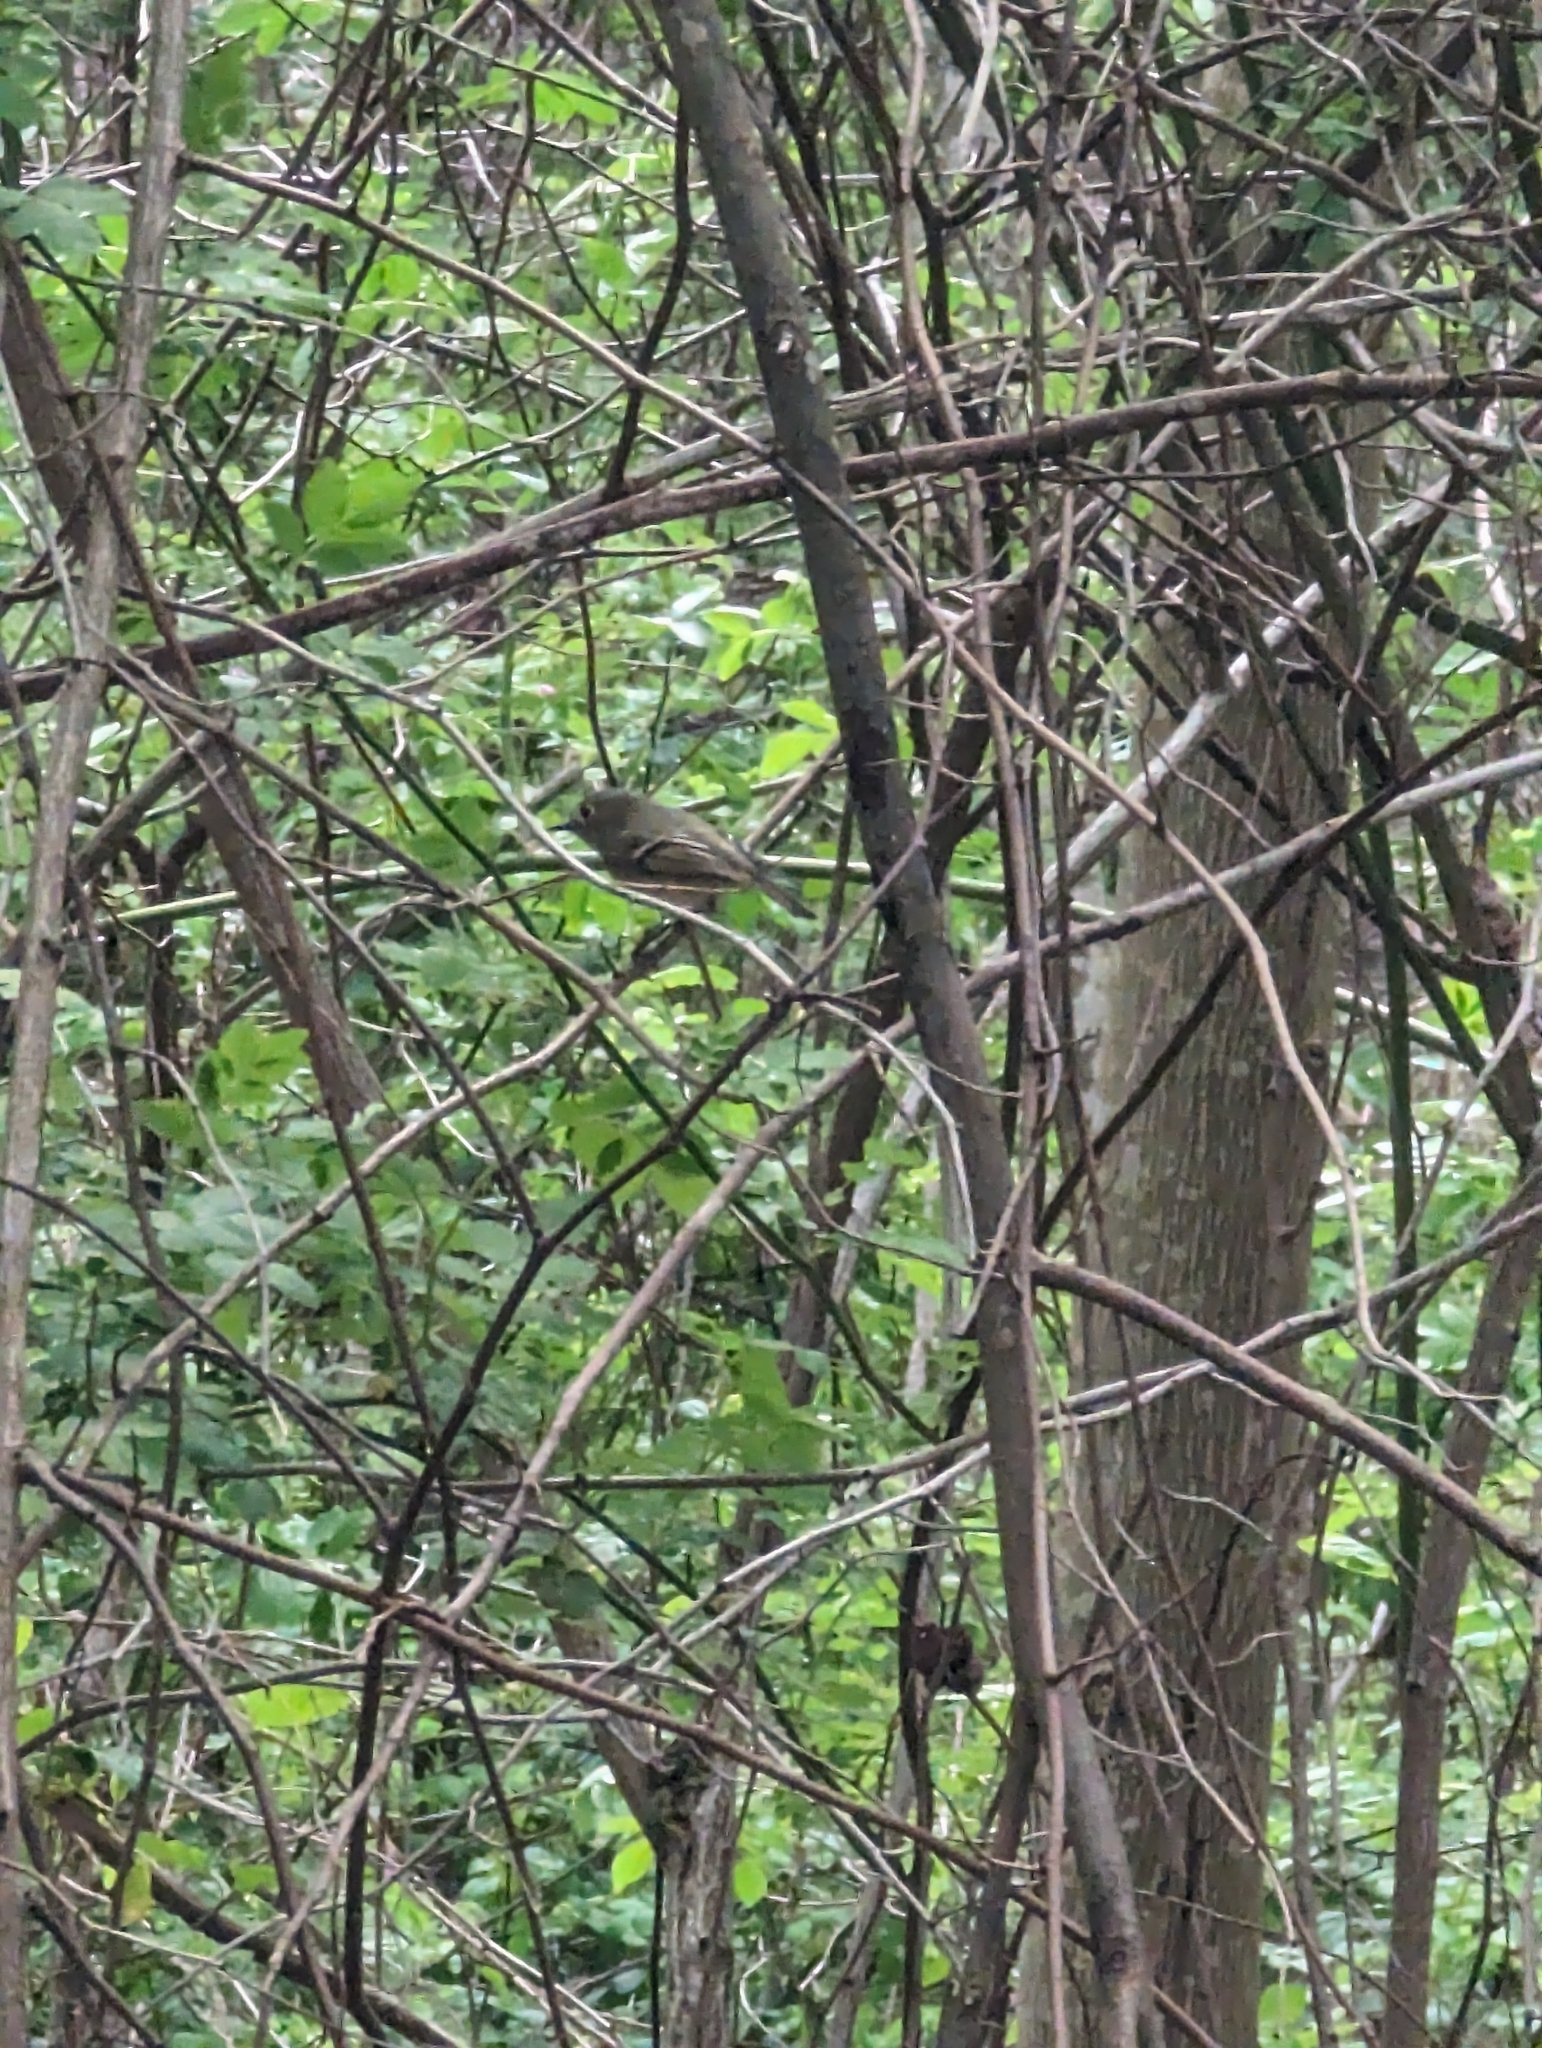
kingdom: Animalia
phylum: Chordata
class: Aves
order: Passeriformes
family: Regulidae
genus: Regulus
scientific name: Regulus calendula
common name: Ruby-crowned kinglet
